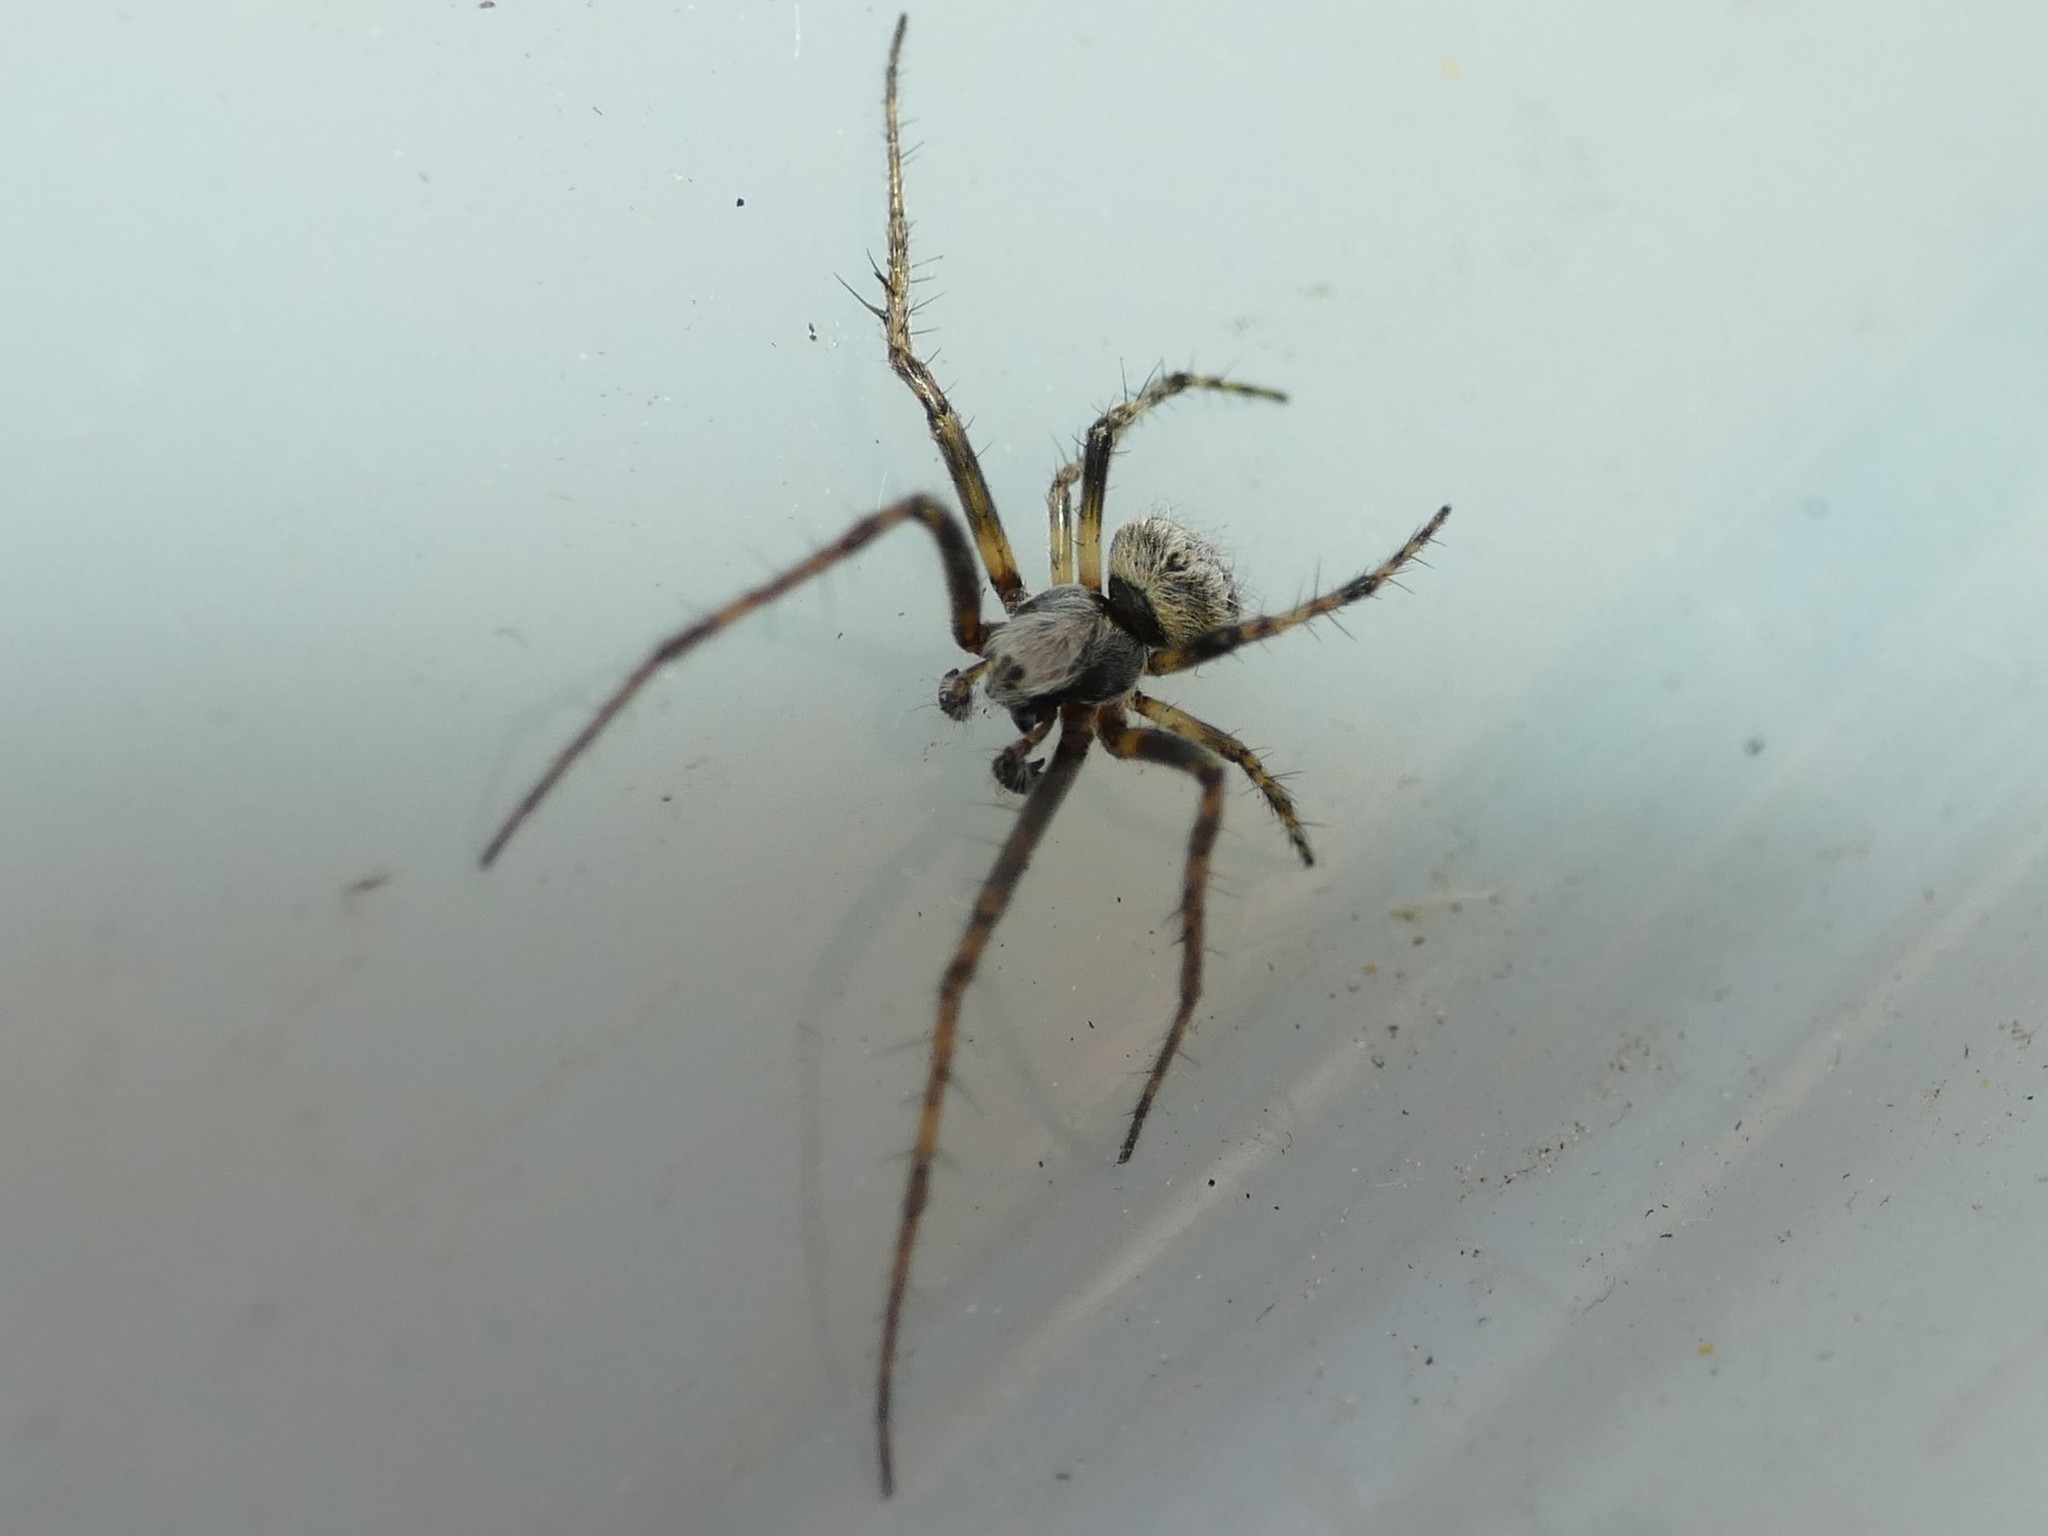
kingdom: Animalia
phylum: Arthropoda
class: Arachnida
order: Araneae
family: Araneidae
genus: Agalenatea
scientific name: Agalenatea redii
